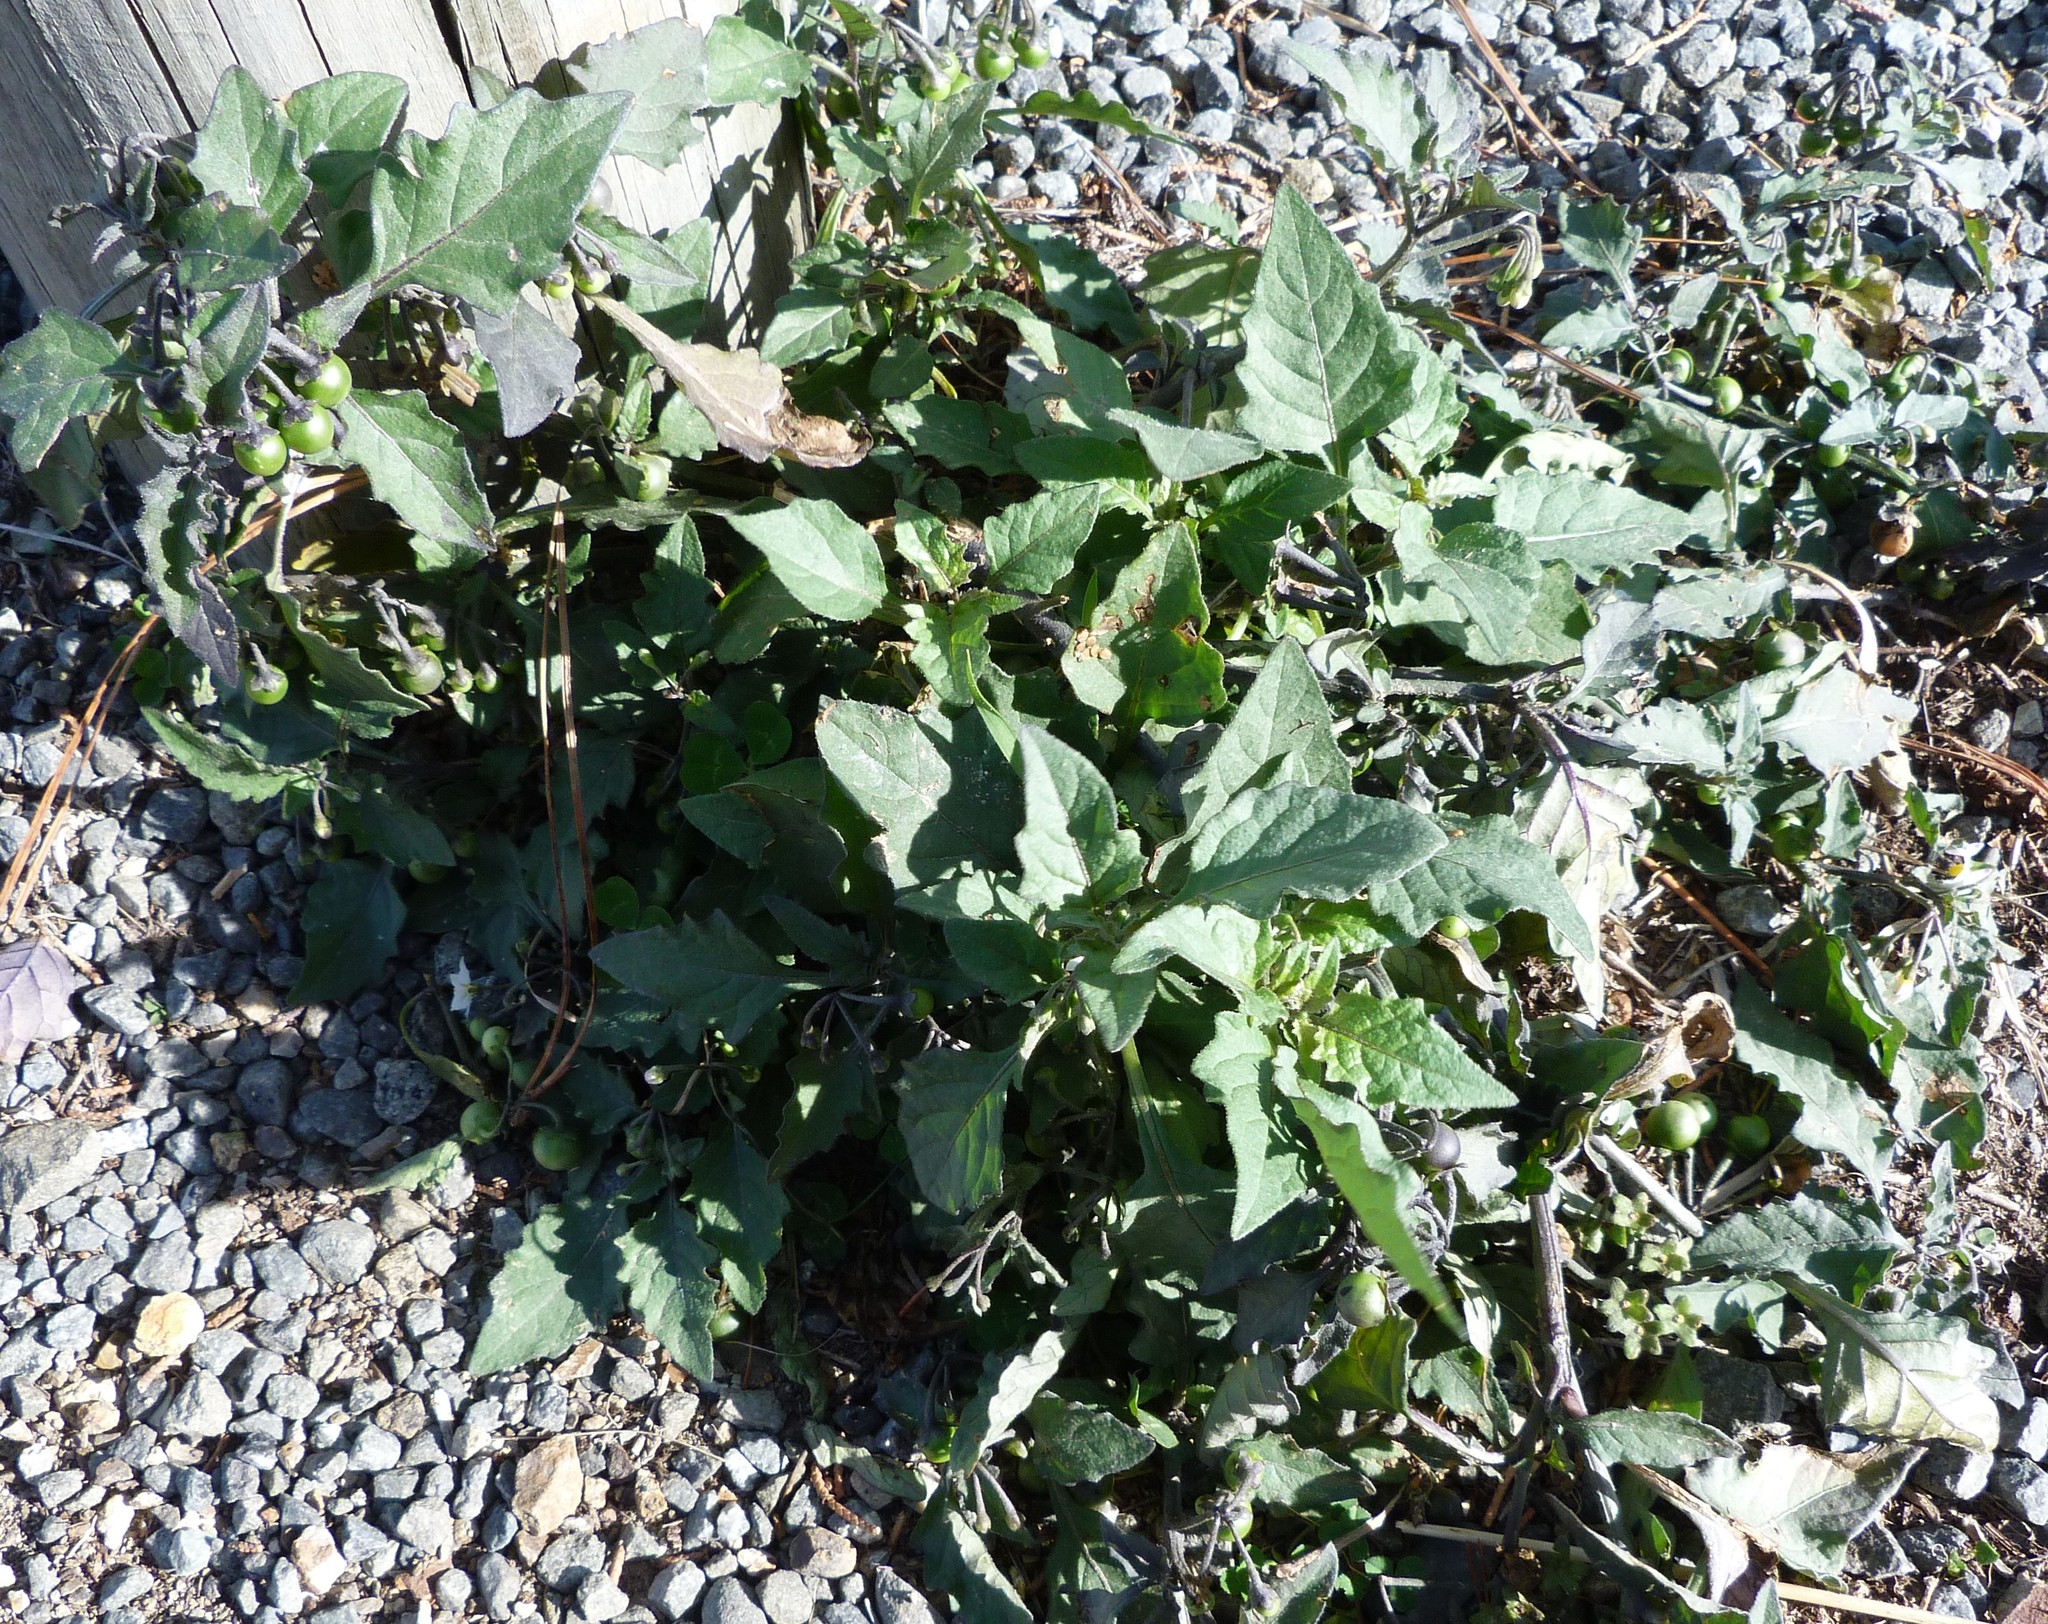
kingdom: Plantae
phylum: Tracheophyta
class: Magnoliopsida
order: Solanales
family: Solanaceae
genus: Solanum
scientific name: Solanum nigrum
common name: Black nightshade
